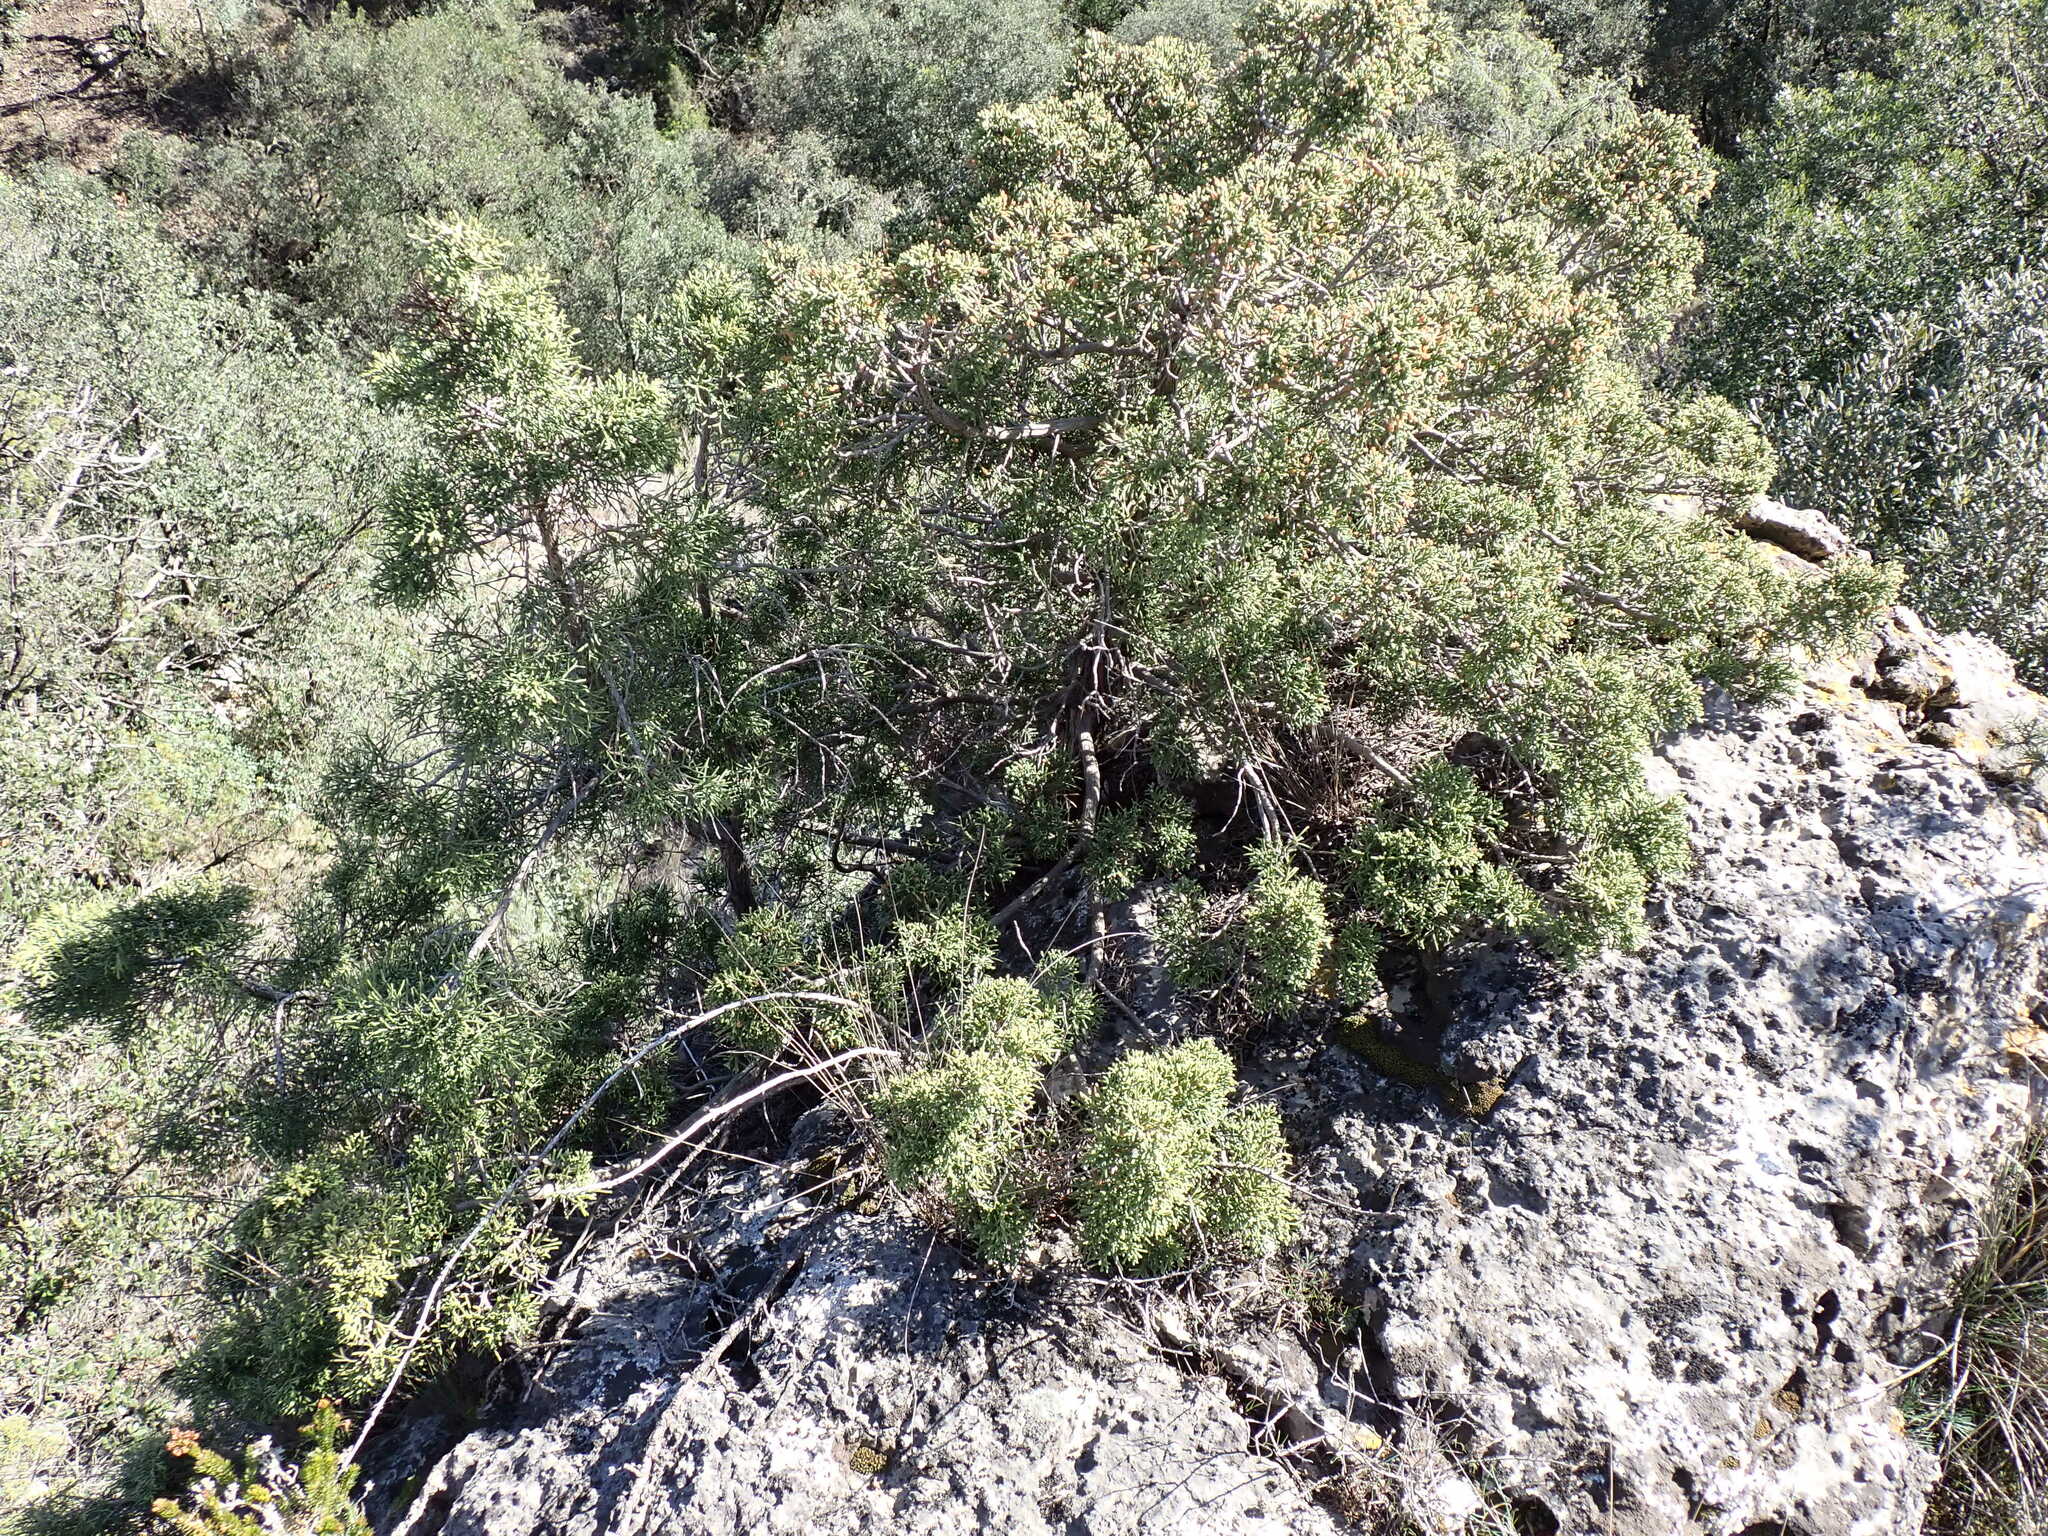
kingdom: Plantae
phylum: Tracheophyta
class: Pinopsida
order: Pinales
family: Cupressaceae
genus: Juniperus
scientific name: Juniperus phoenicea
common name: Phoenician juniper
